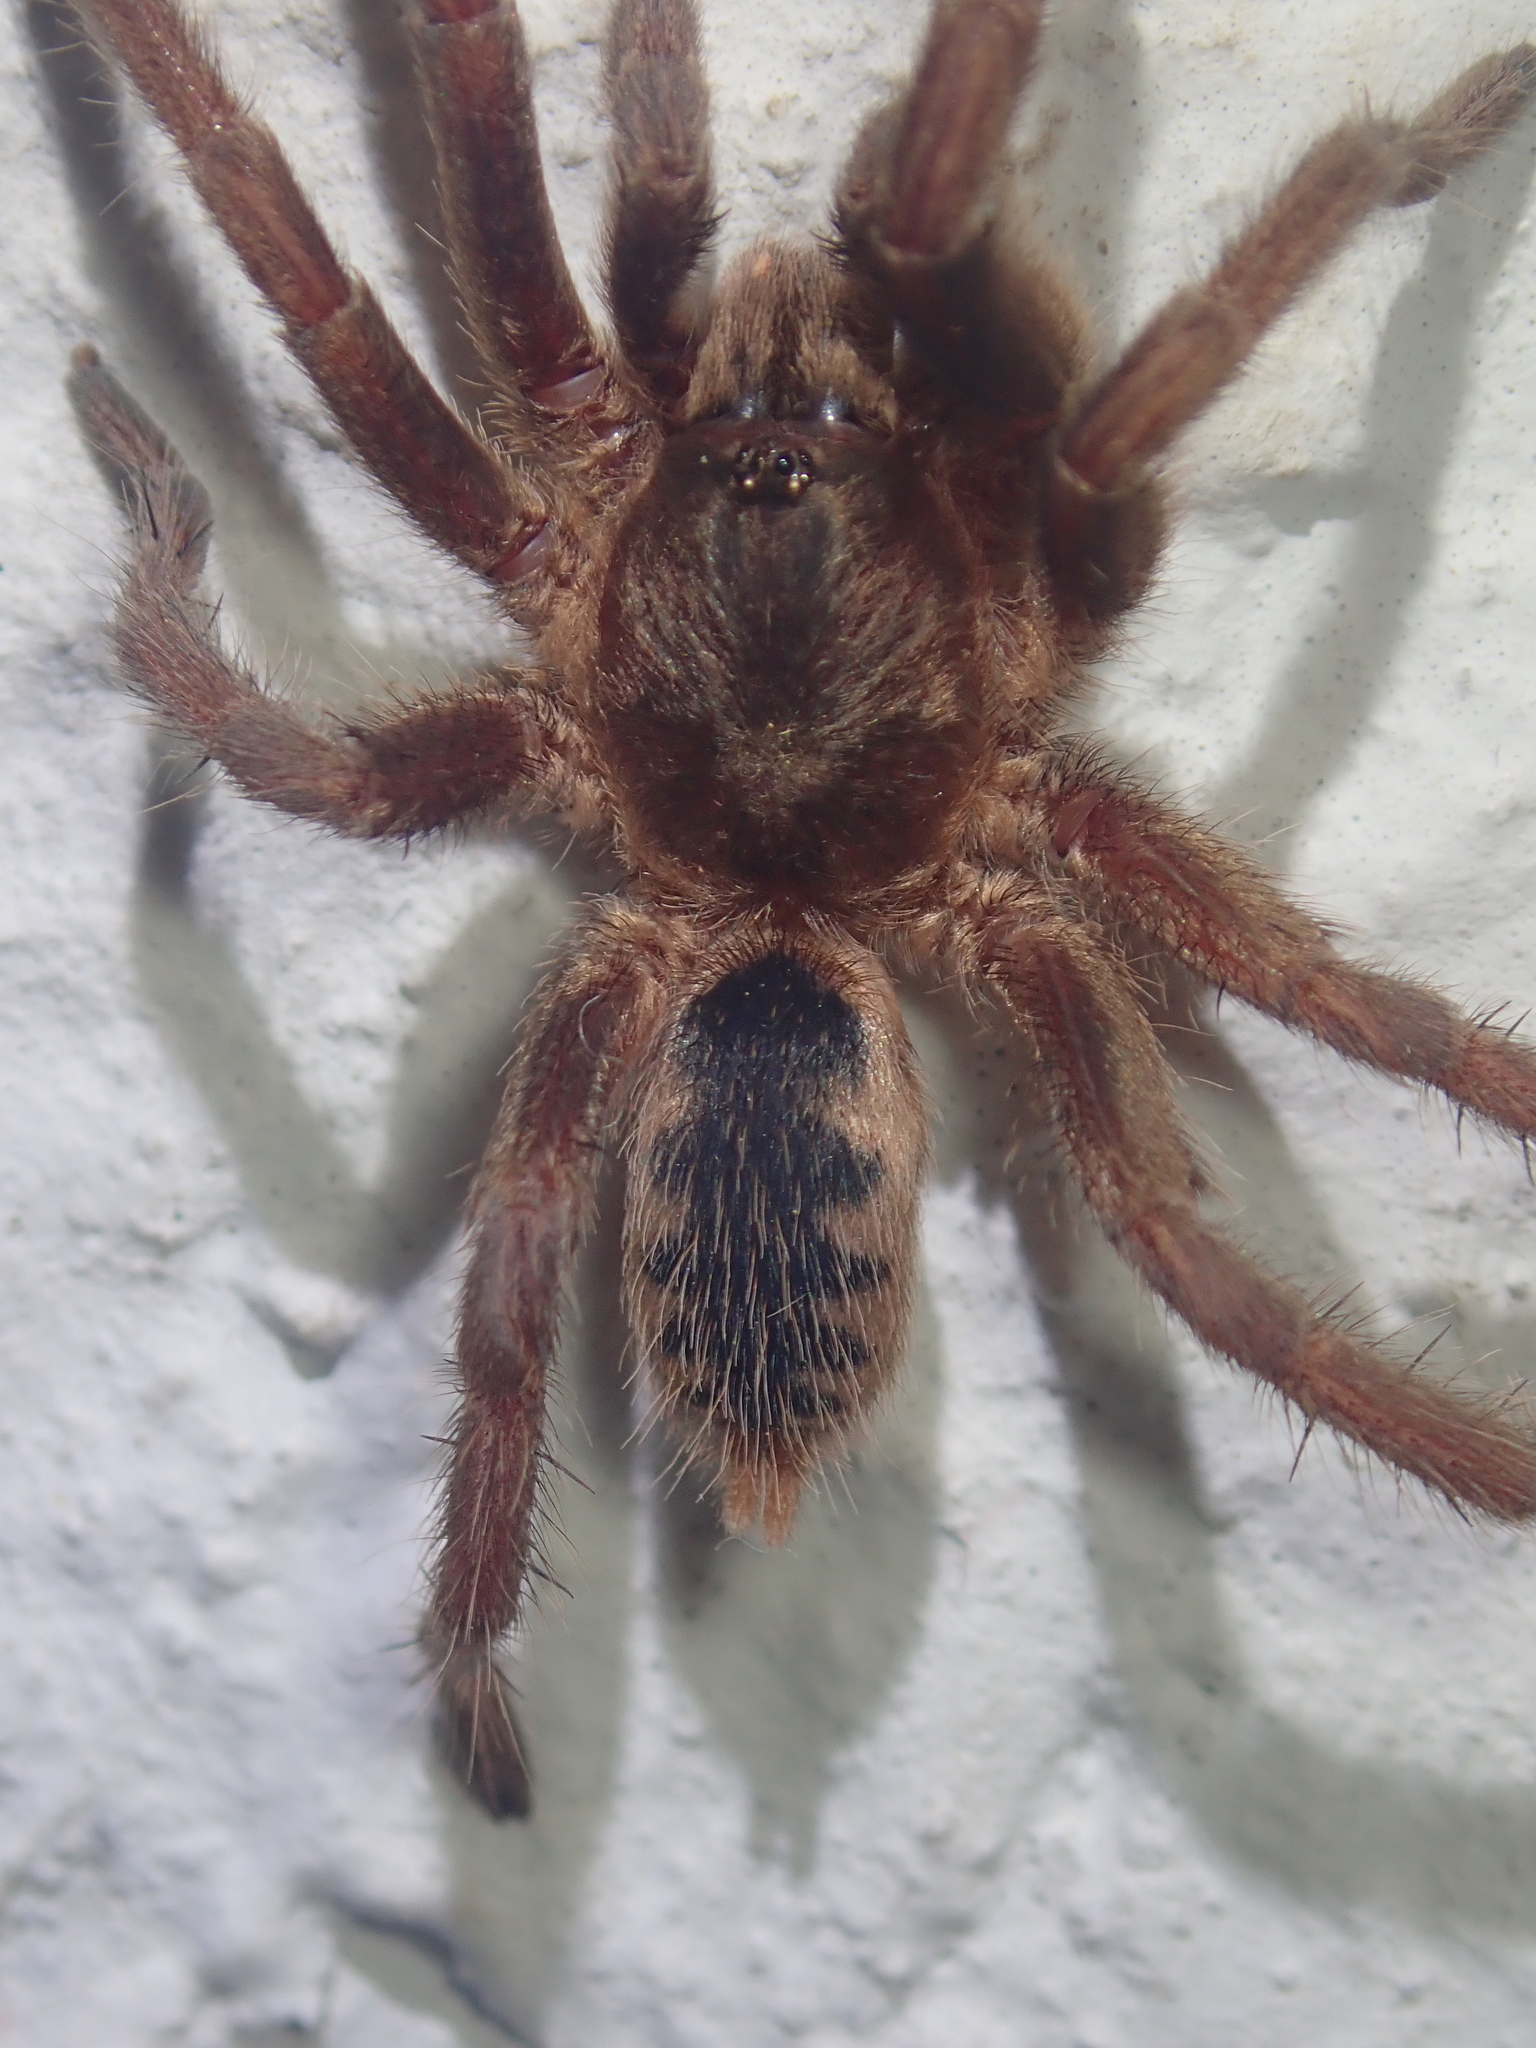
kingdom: Animalia
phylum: Arthropoda
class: Arachnida
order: Araneae
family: Theraphosidae
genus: Guyruita
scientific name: Guyruita cerrado
